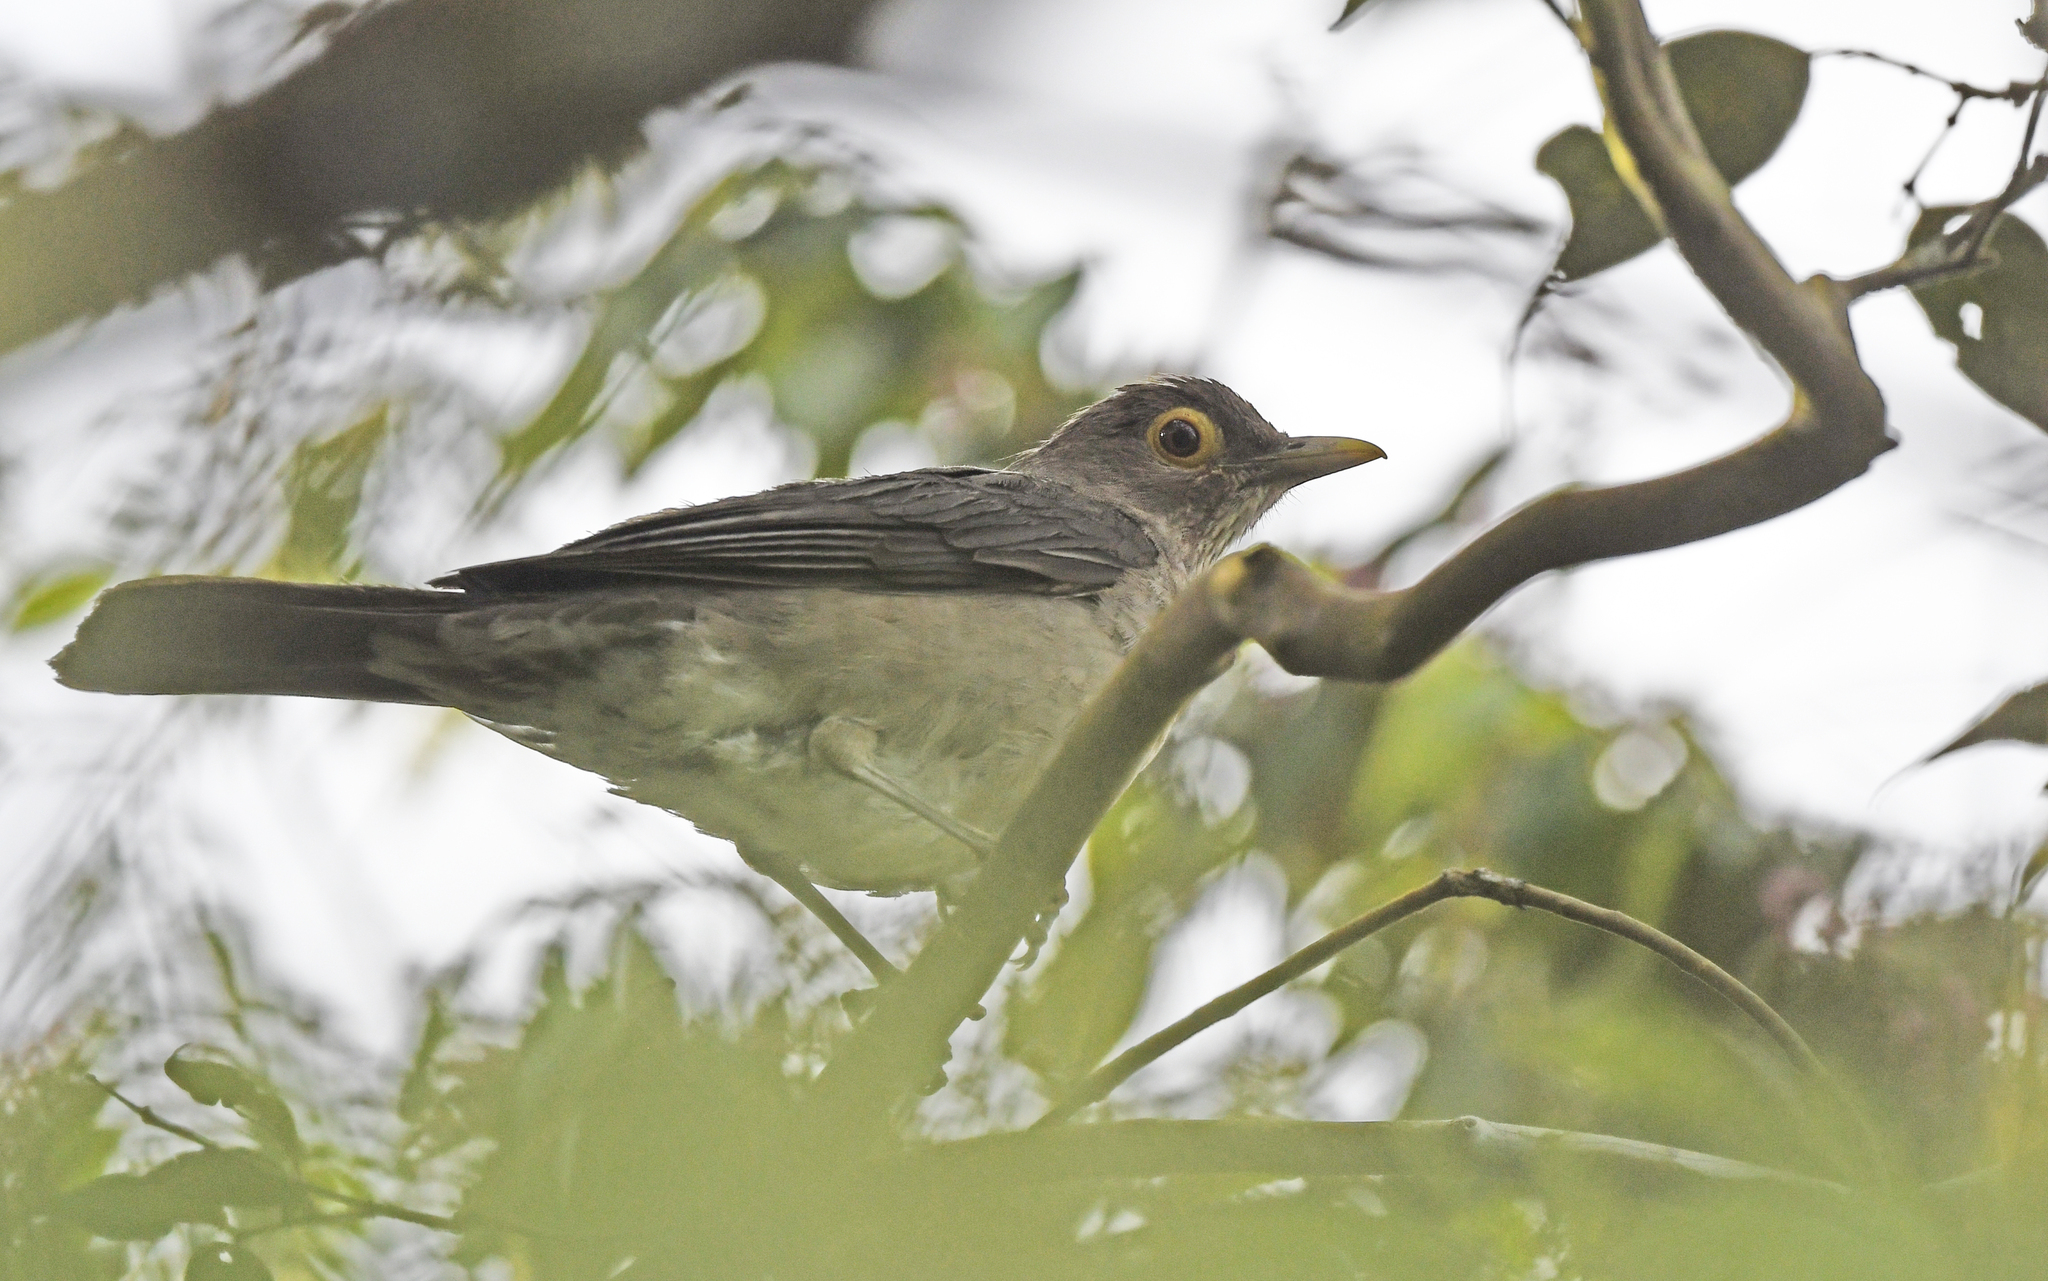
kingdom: Animalia
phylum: Chordata
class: Aves
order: Passeriformes
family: Turdidae
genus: Turdus
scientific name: Turdus nudigenis
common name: Spectacled thrush
